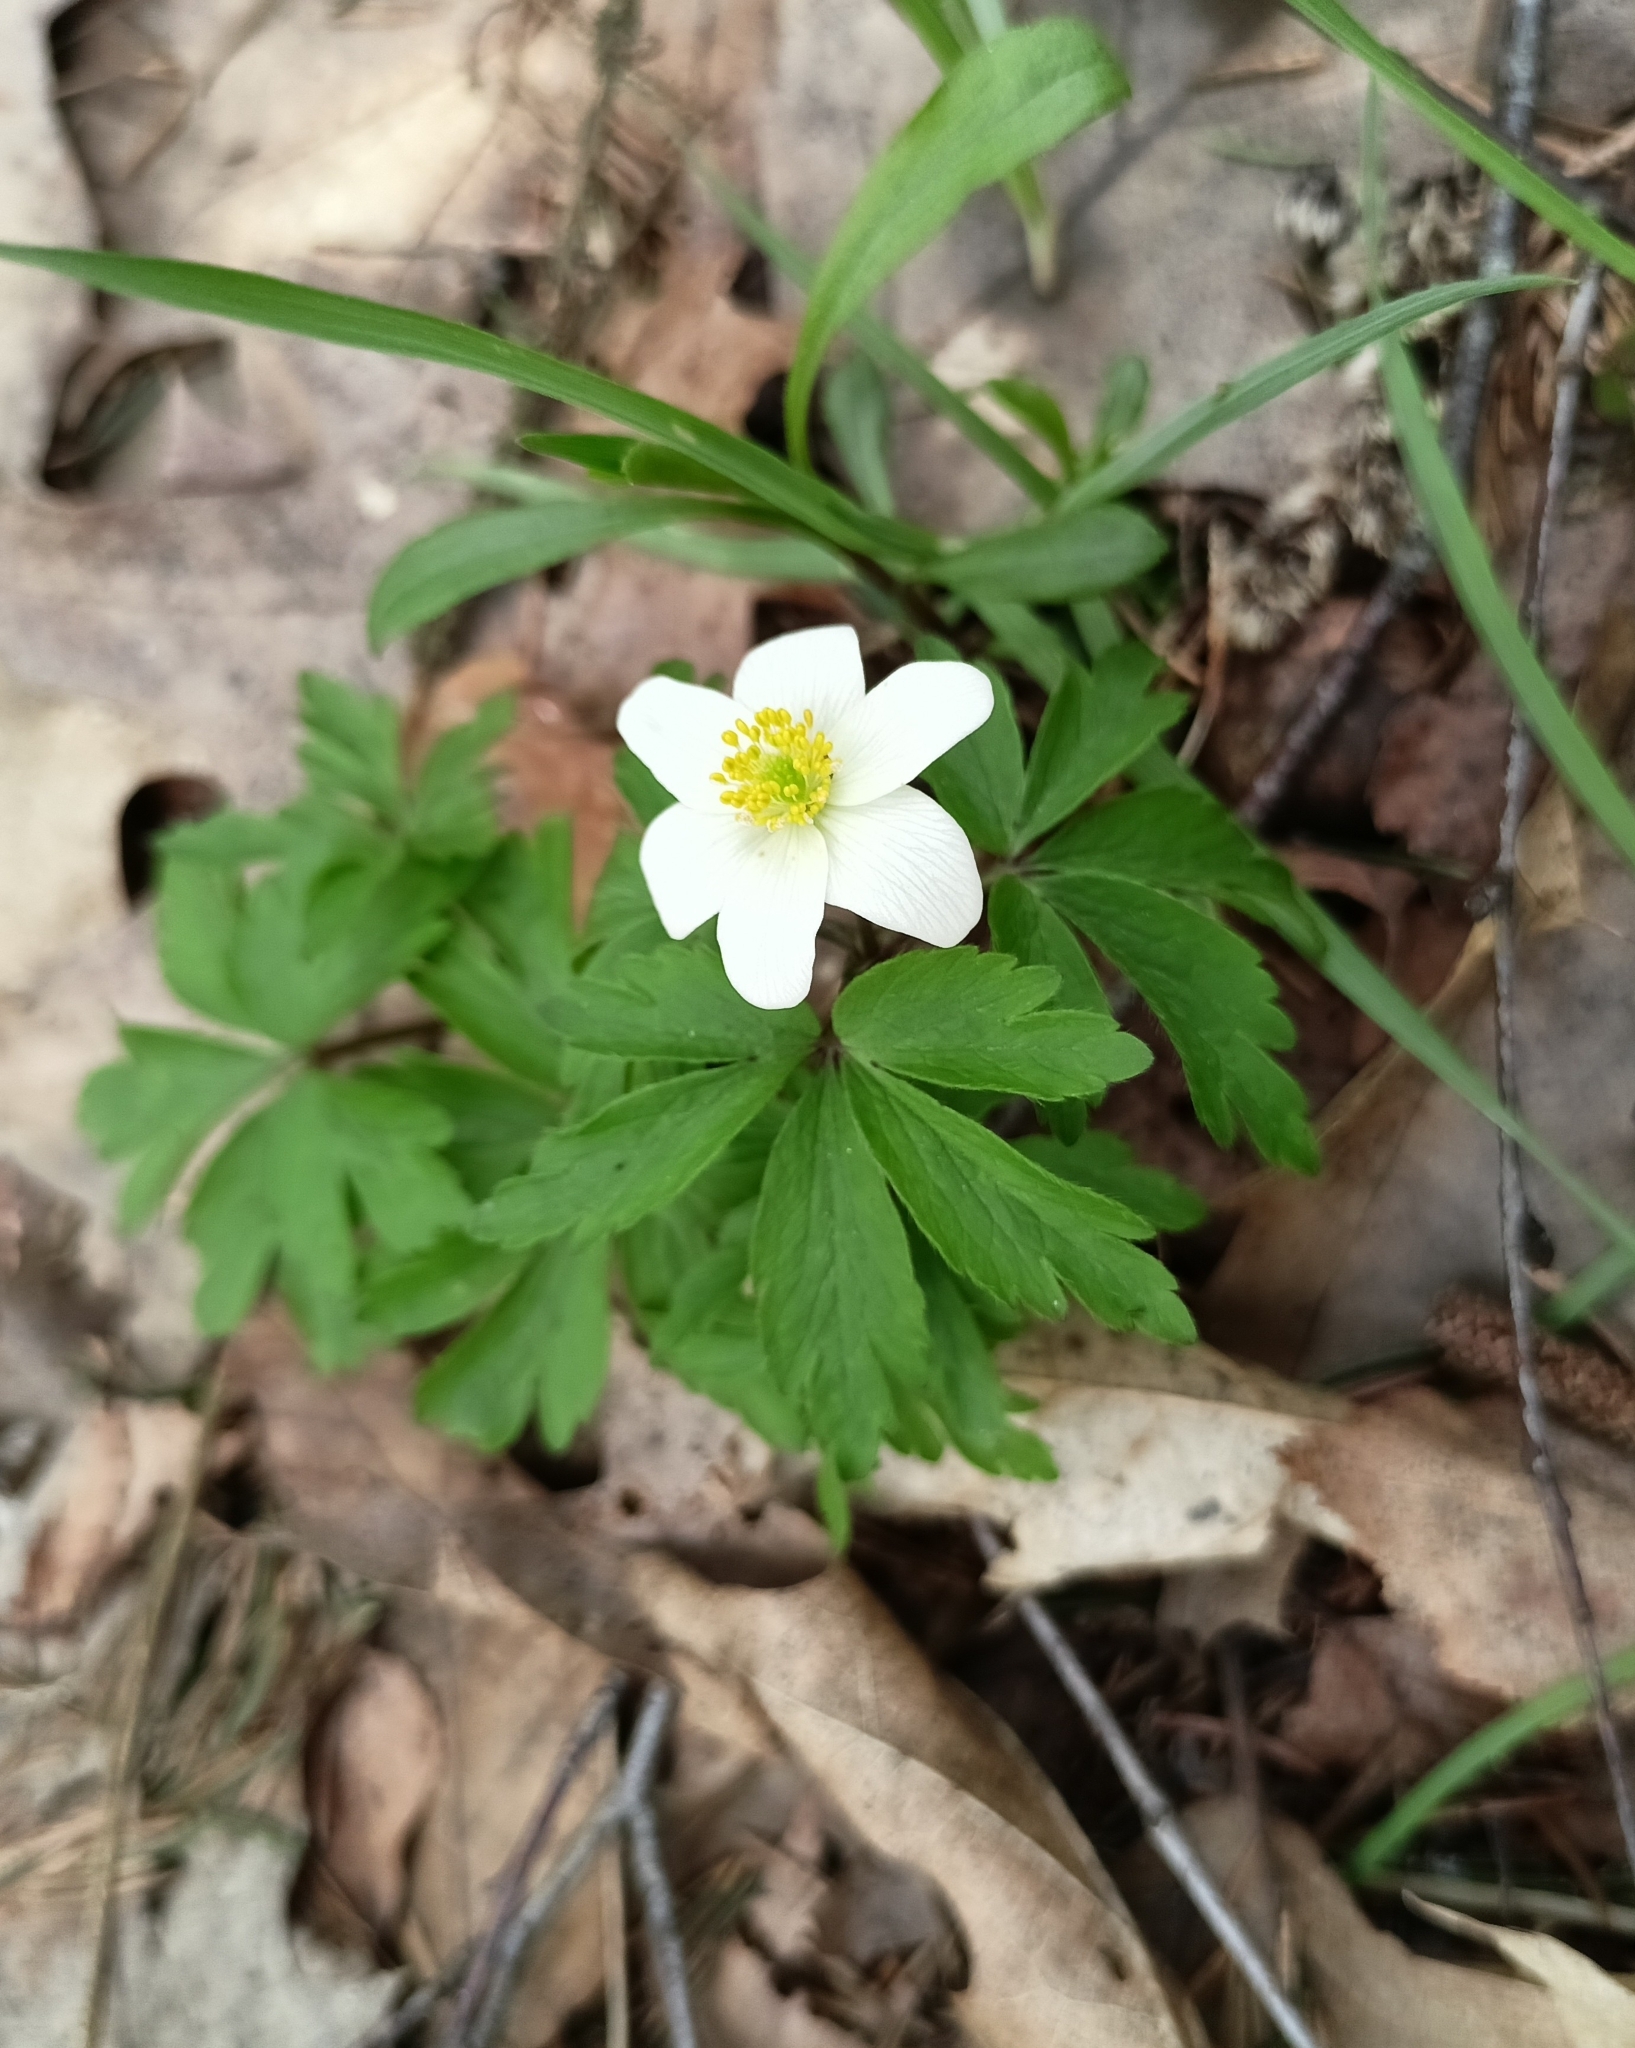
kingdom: Plantae
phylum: Tracheophyta
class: Magnoliopsida
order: Ranunculales
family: Ranunculaceae
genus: Anemone
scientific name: Anemone nemorosa
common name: Wood anemone
